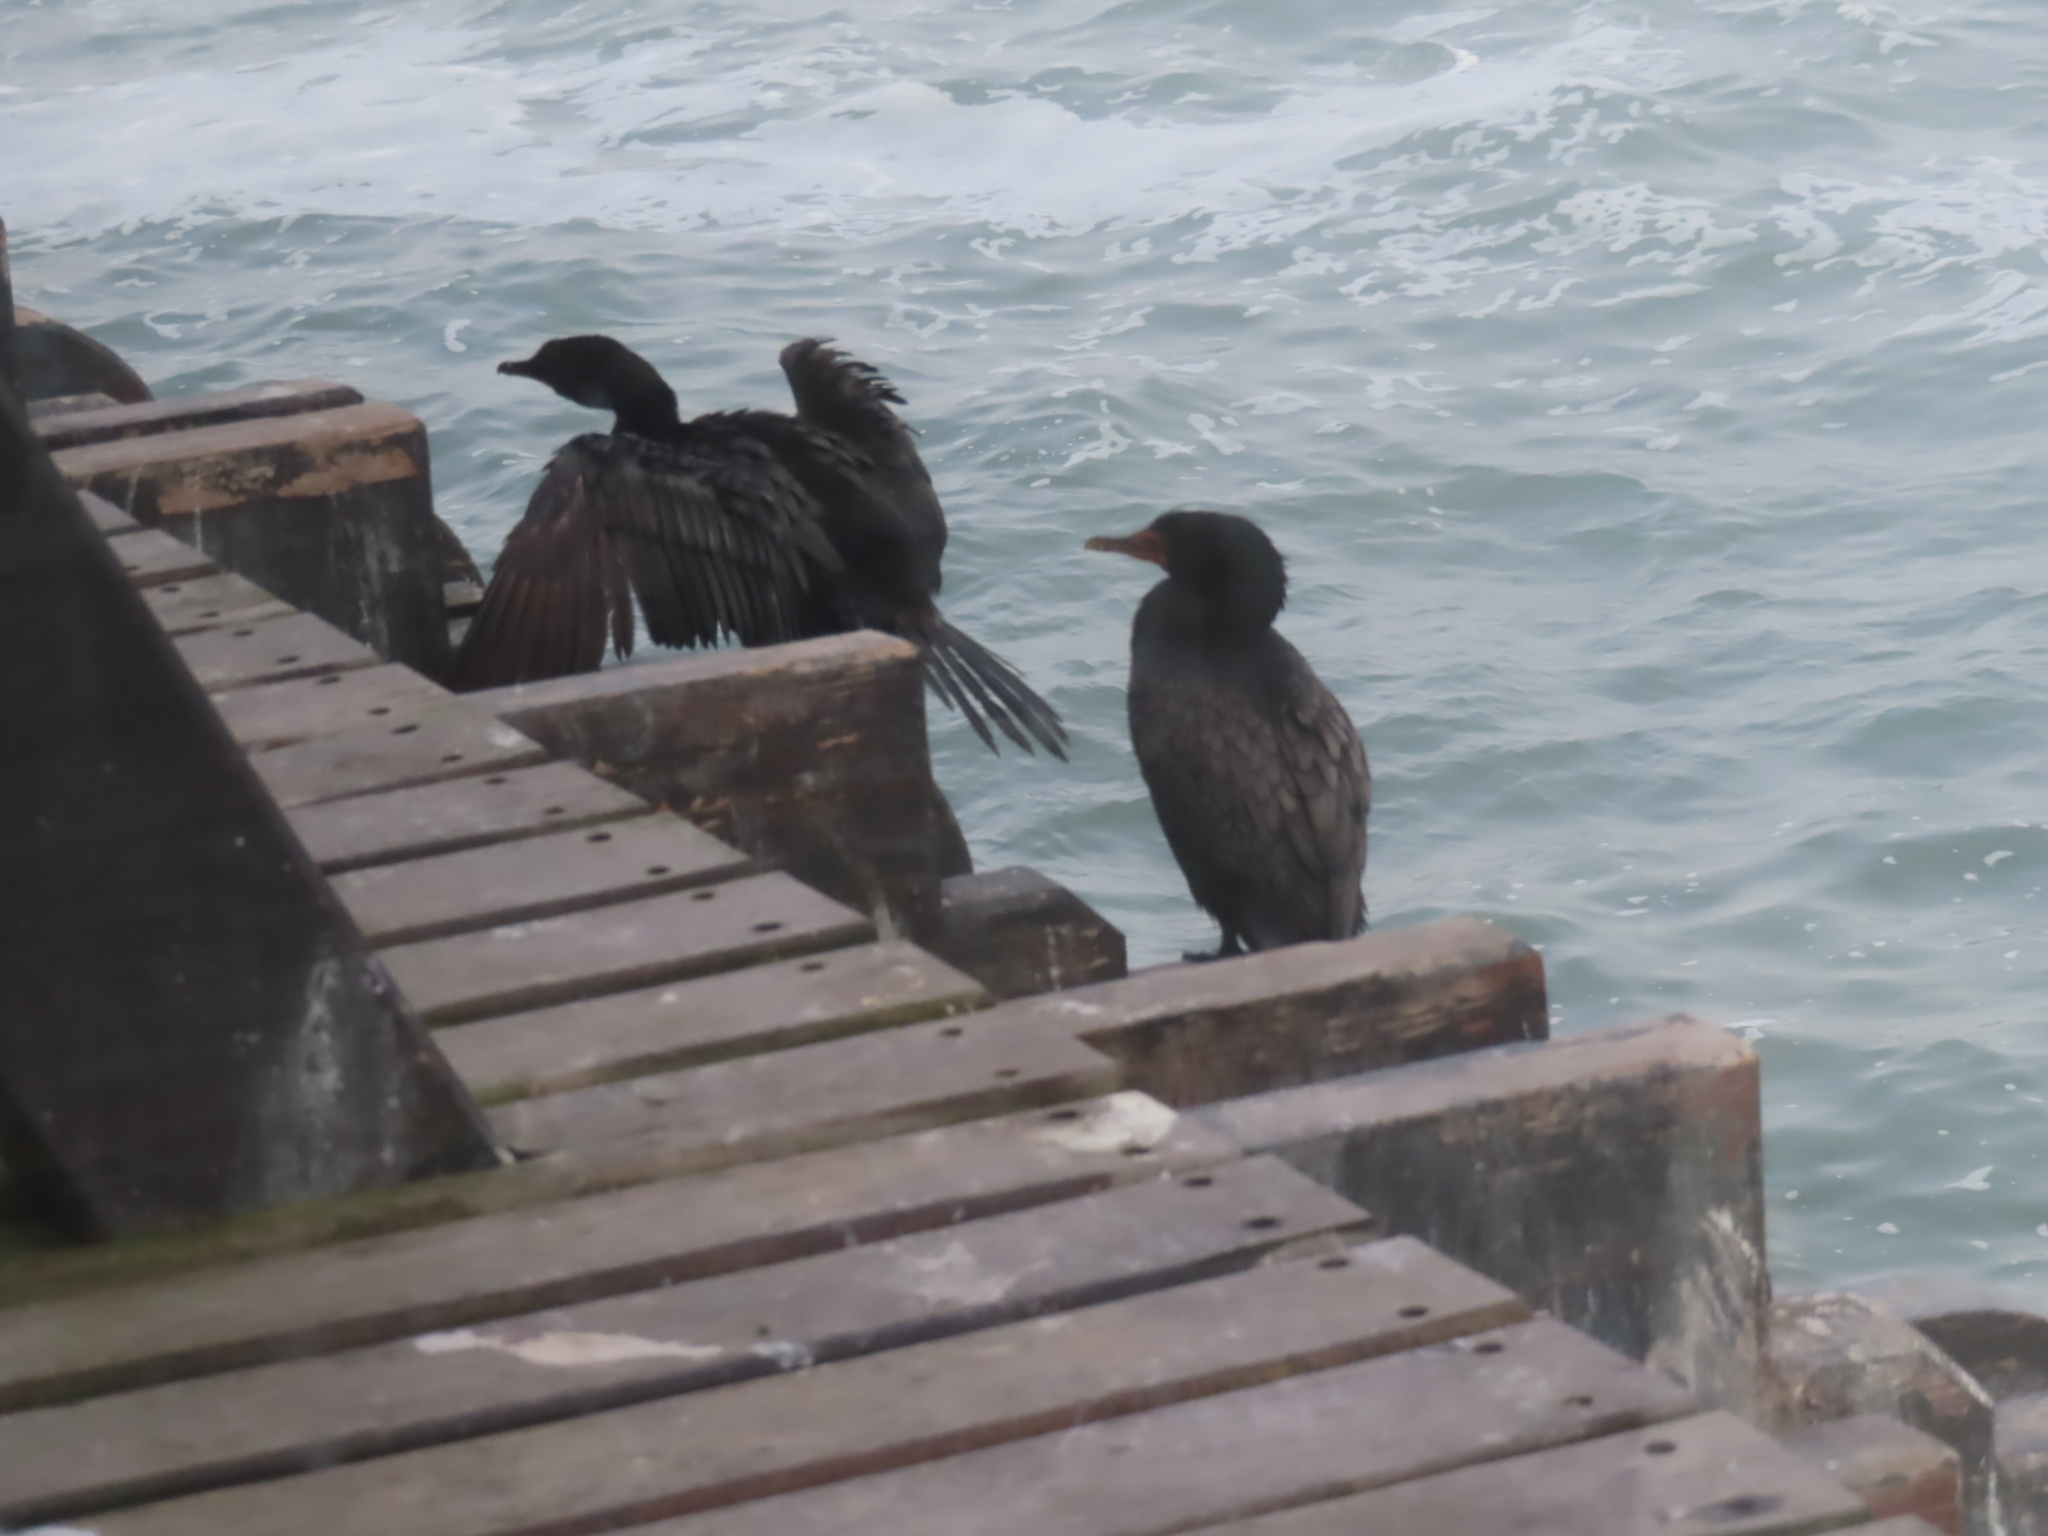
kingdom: Animalia
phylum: Chordata
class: Aves
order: Suliformes
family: Phalacrocoracidae
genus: Microcarbo
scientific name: Microcarbo coronatus
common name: Crowned cormorant
